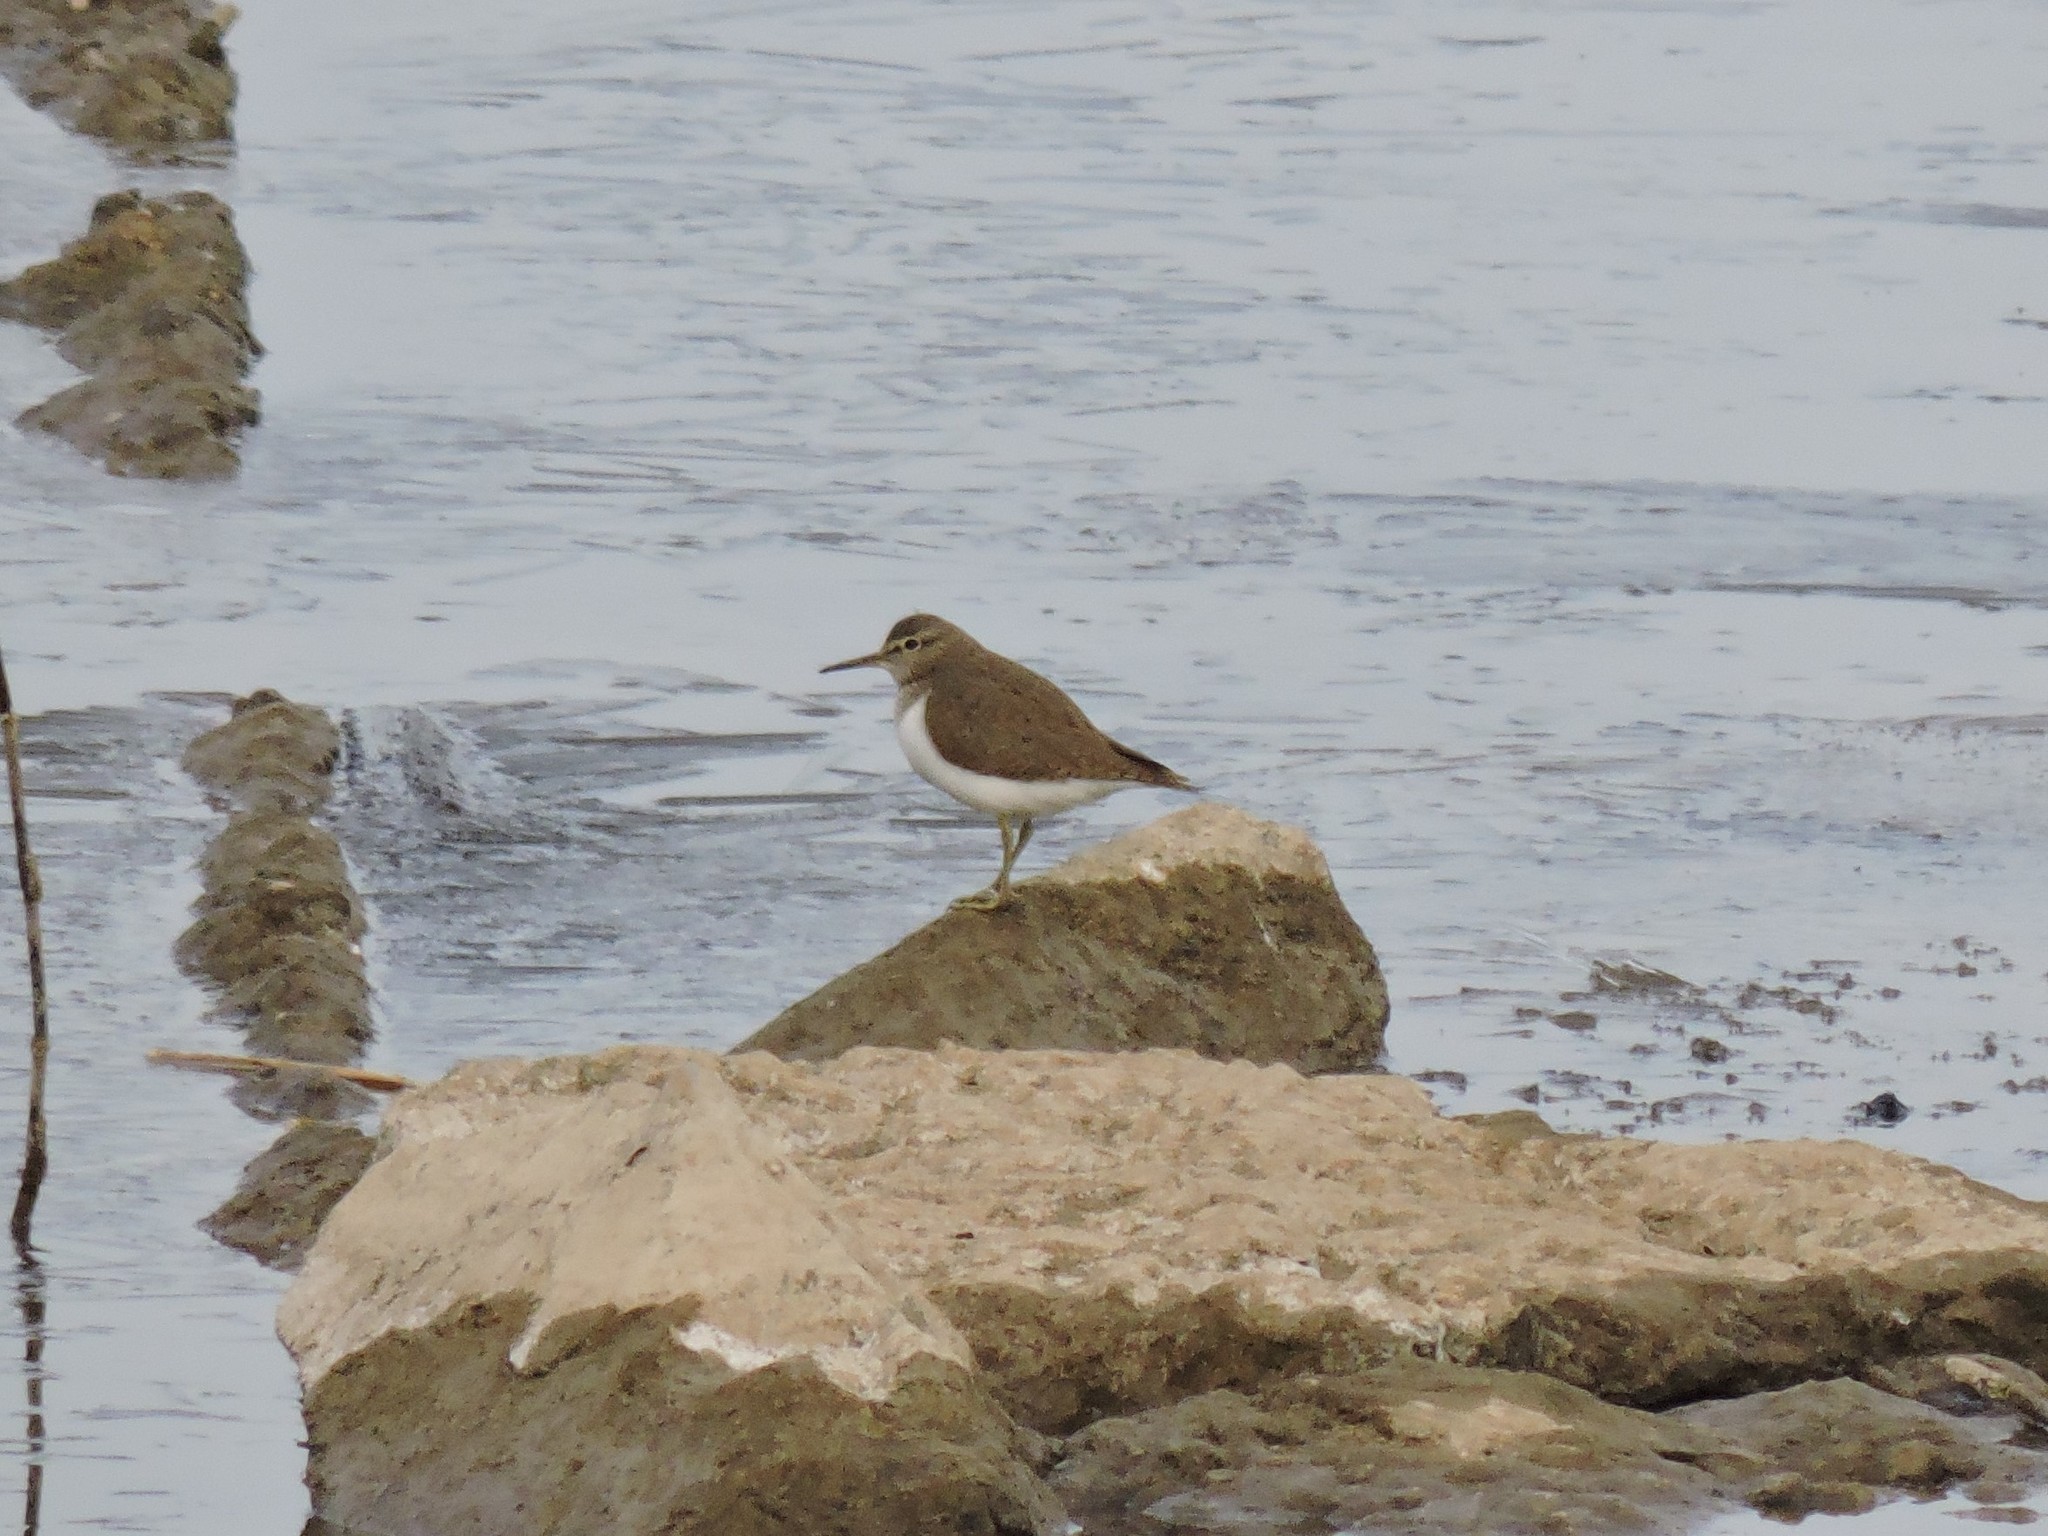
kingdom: Animalia
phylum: Chordata
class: Aves
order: Charadriiformes
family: Scolopacidae
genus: Actitis
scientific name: Actitis hypoleucos
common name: Common sandpiper
